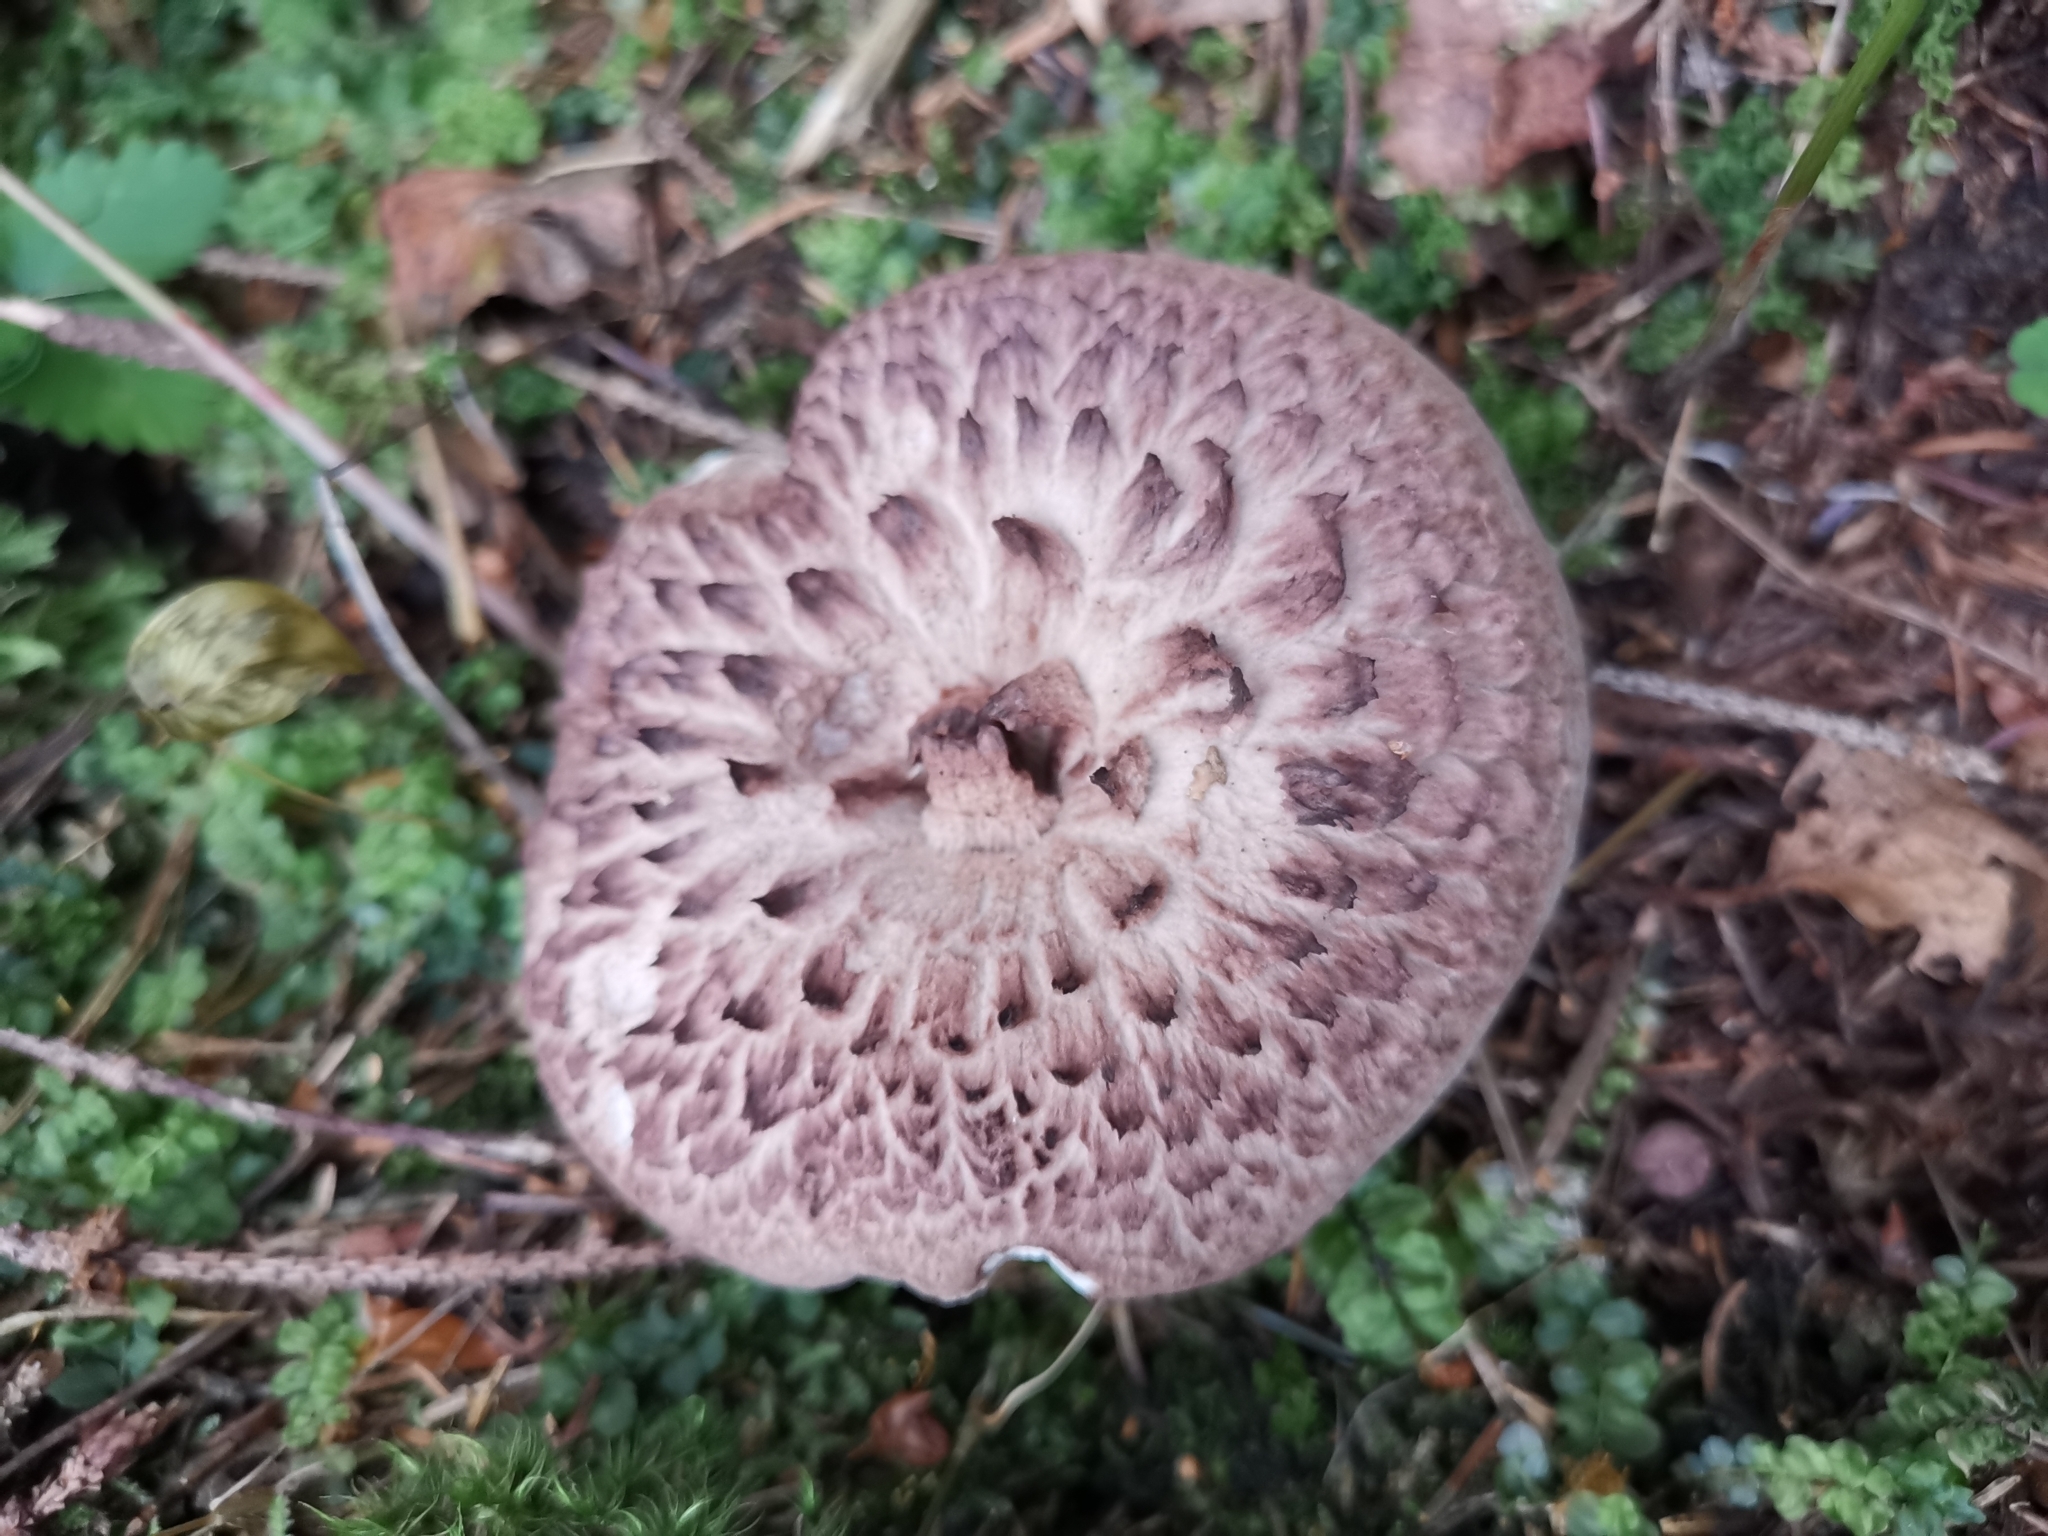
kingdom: Fungi
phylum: Basidiomycota
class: Agaricomycetes
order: Thelephorales
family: Bankeraceae
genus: Sarcodon
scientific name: Sarcodon imbricatus
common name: Shingled hedgehog
